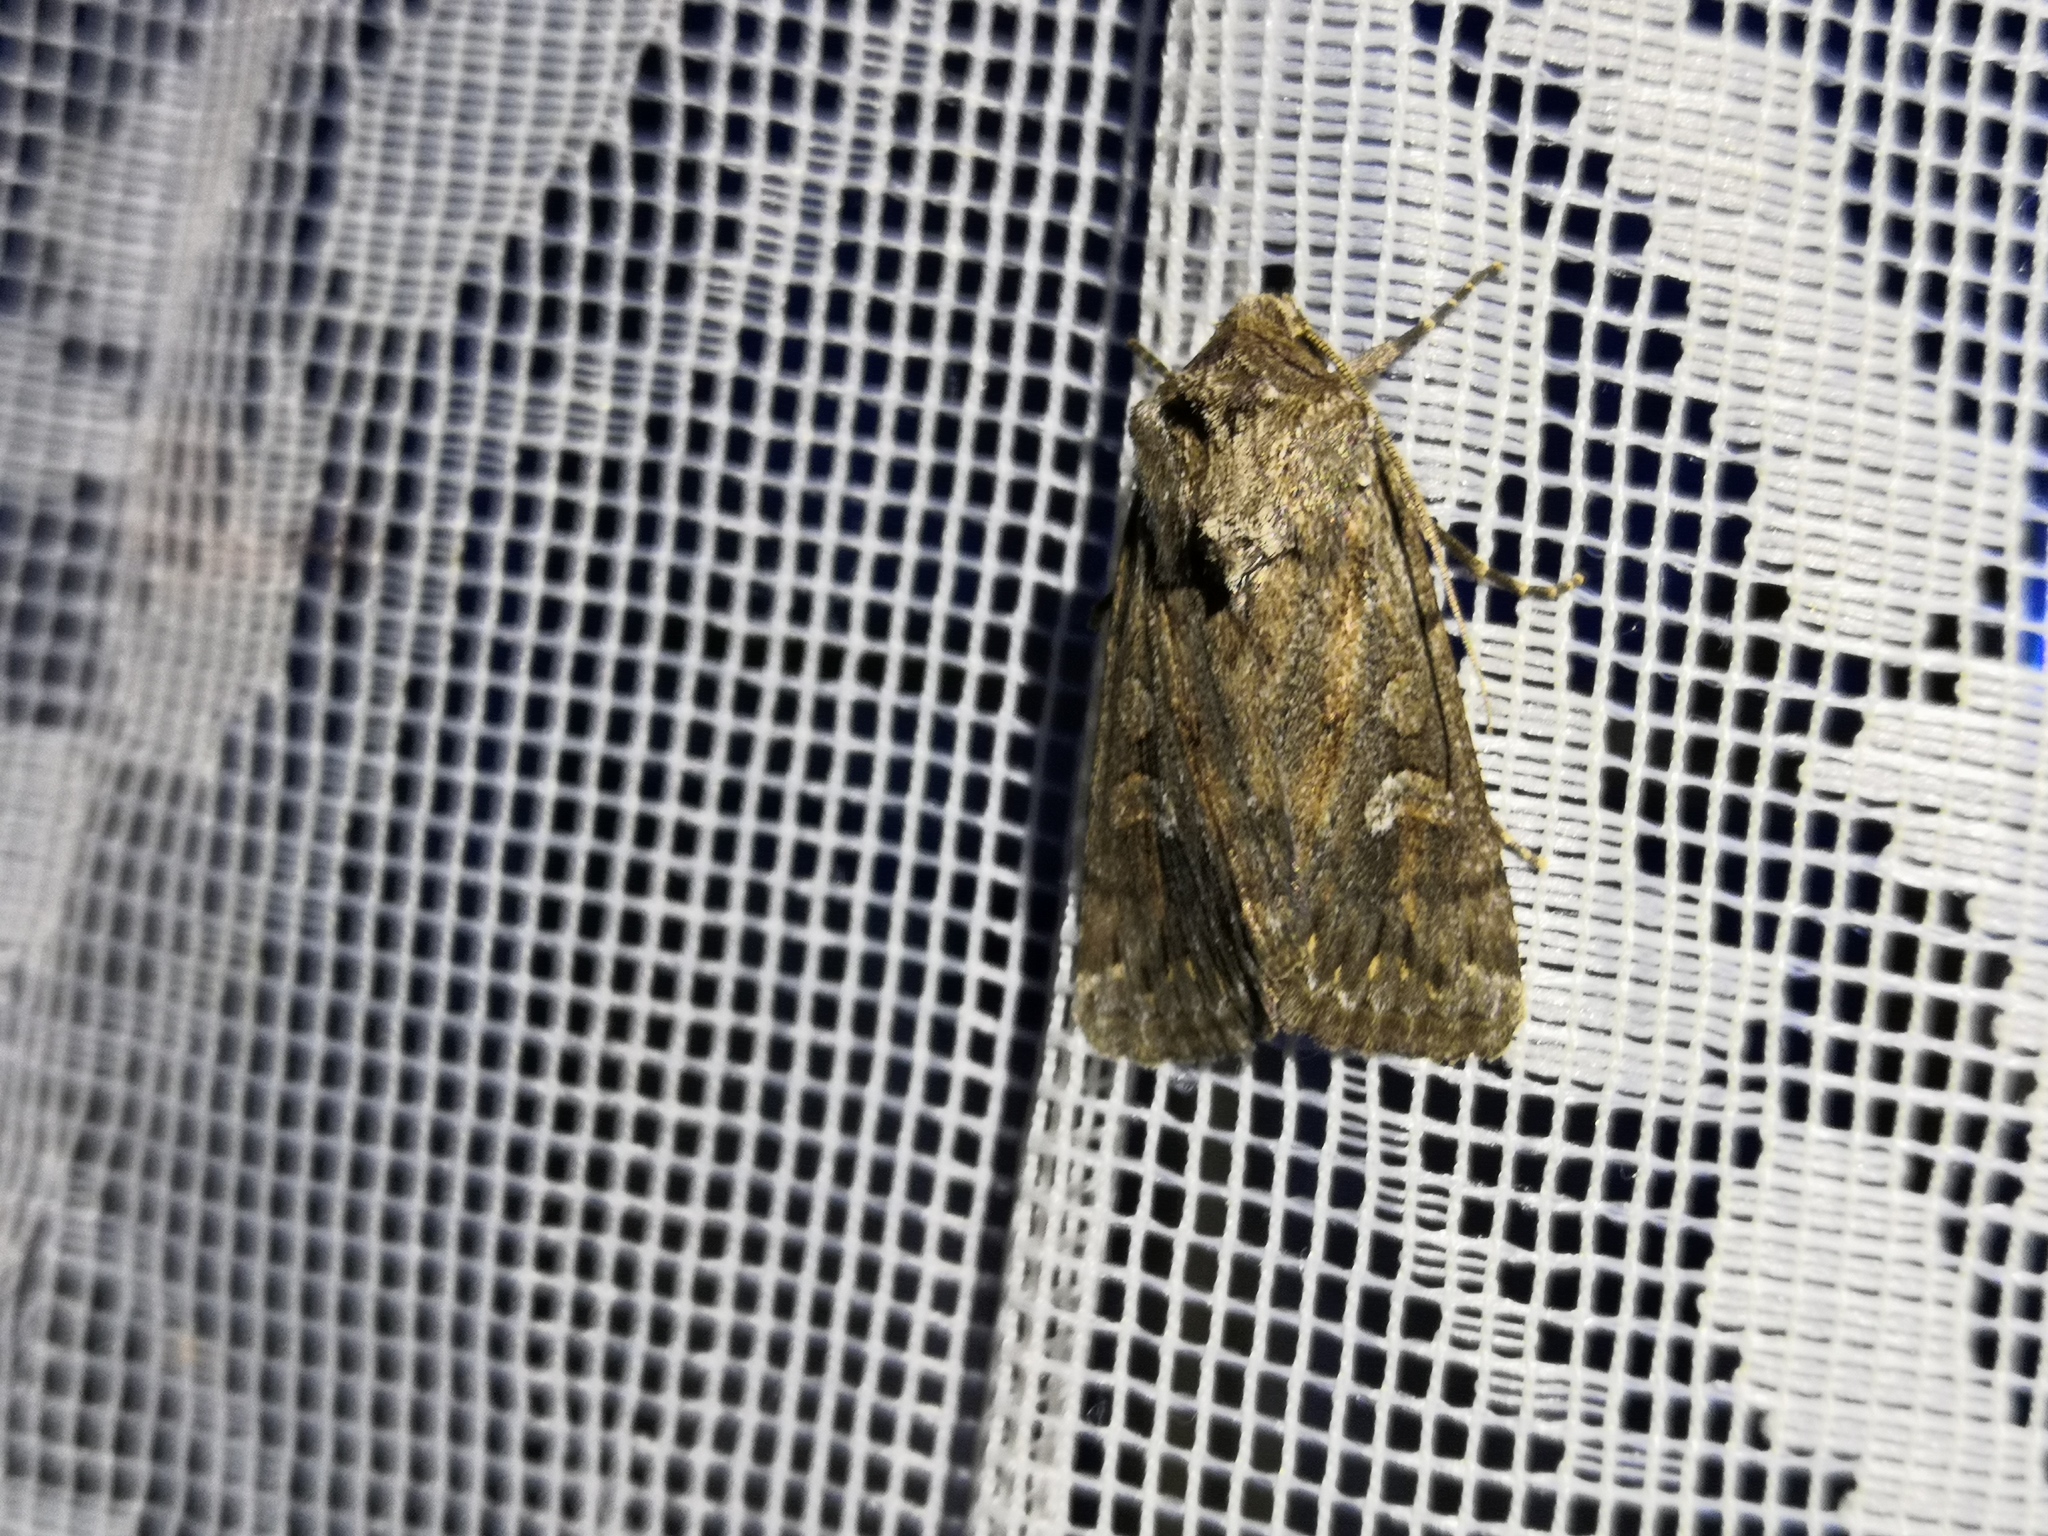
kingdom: Animalia
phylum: Arthropoda
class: Insecta
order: Lepidoptera
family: Noctuidae
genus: Yigoga
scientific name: Yigoga forcipula
